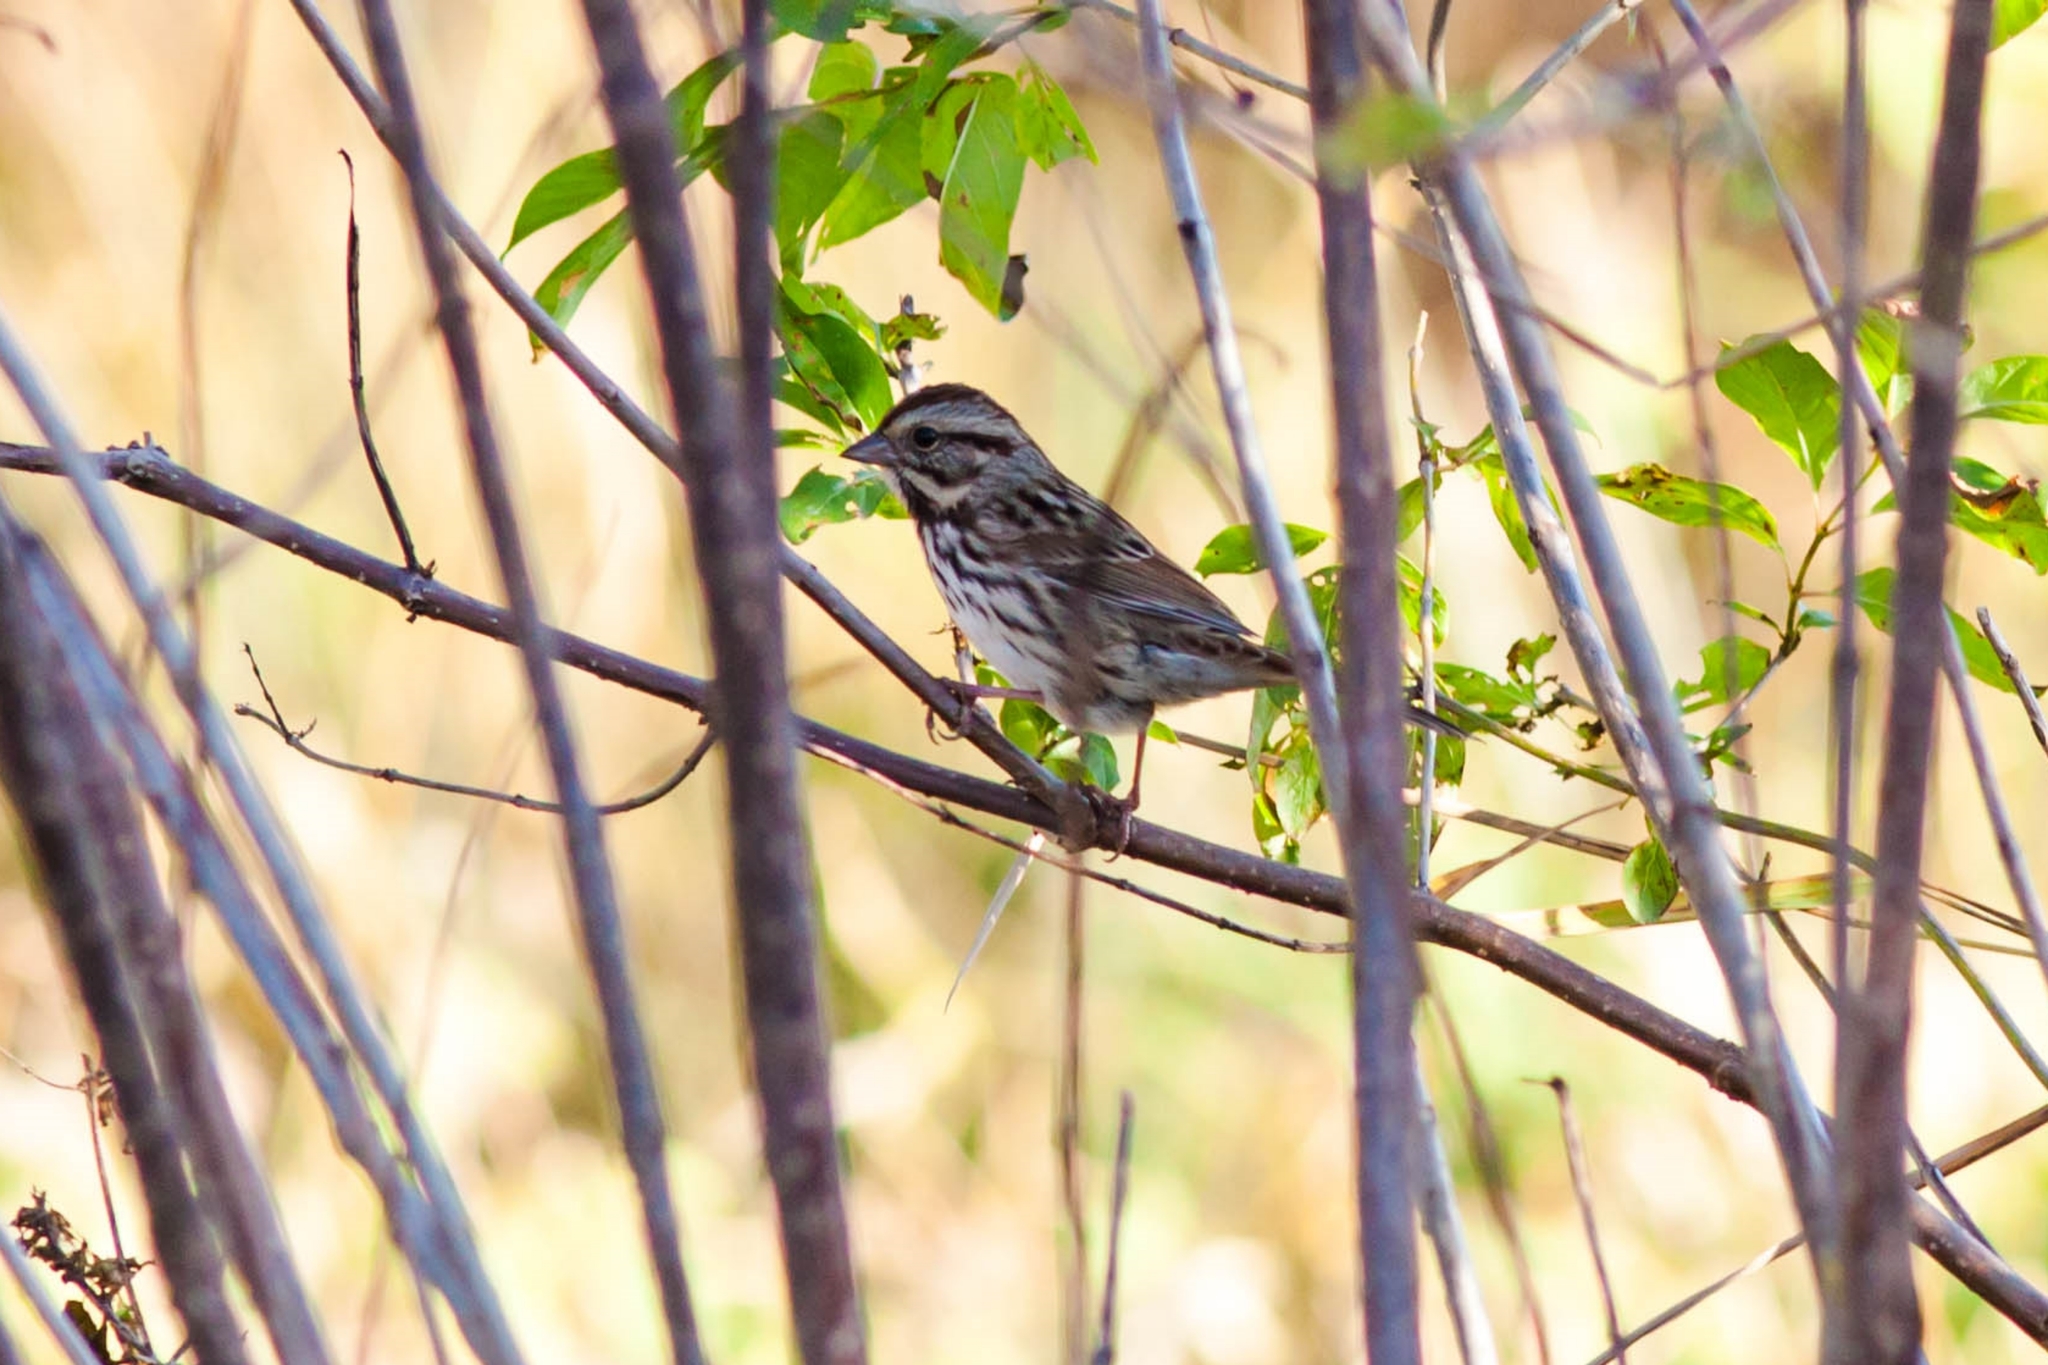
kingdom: Animalia
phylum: Chordata
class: Aves
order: Passeriformes
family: Passerellidae
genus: Melospiza
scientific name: Melospiza melodia
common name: Song sparrow
